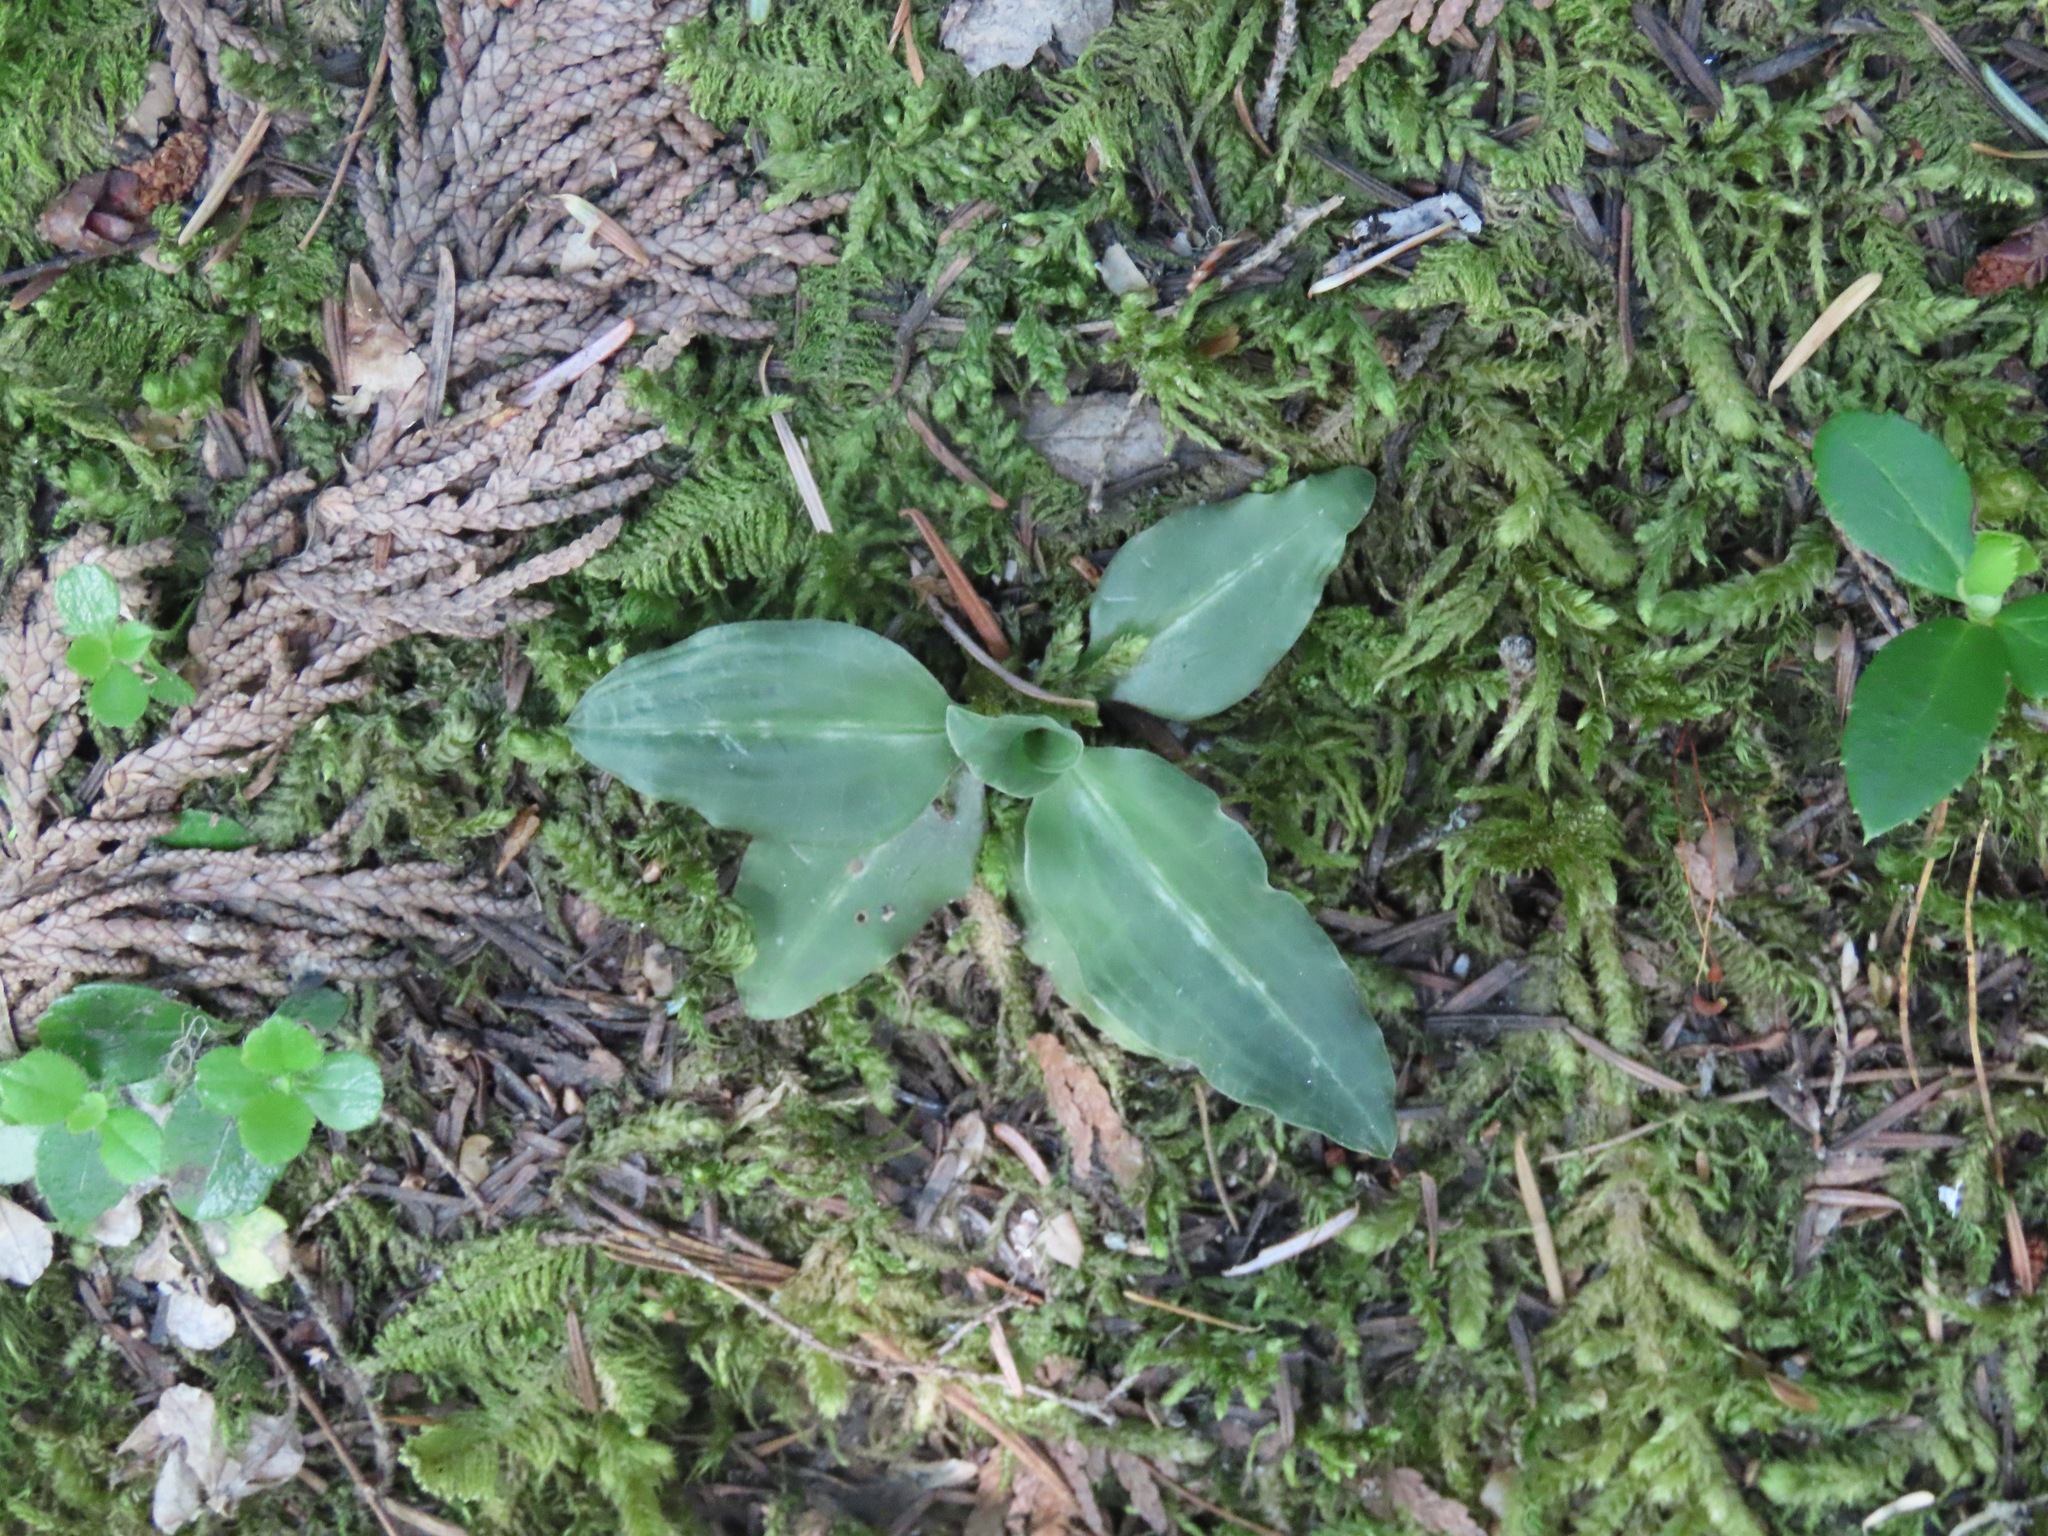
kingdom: Plantae
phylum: Tracheophyta
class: Liliopsida
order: Asparagales
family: Orchidaceae
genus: Goodyera
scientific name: Goodyera oblongifolia
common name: Giant rattlesnake-plantain
